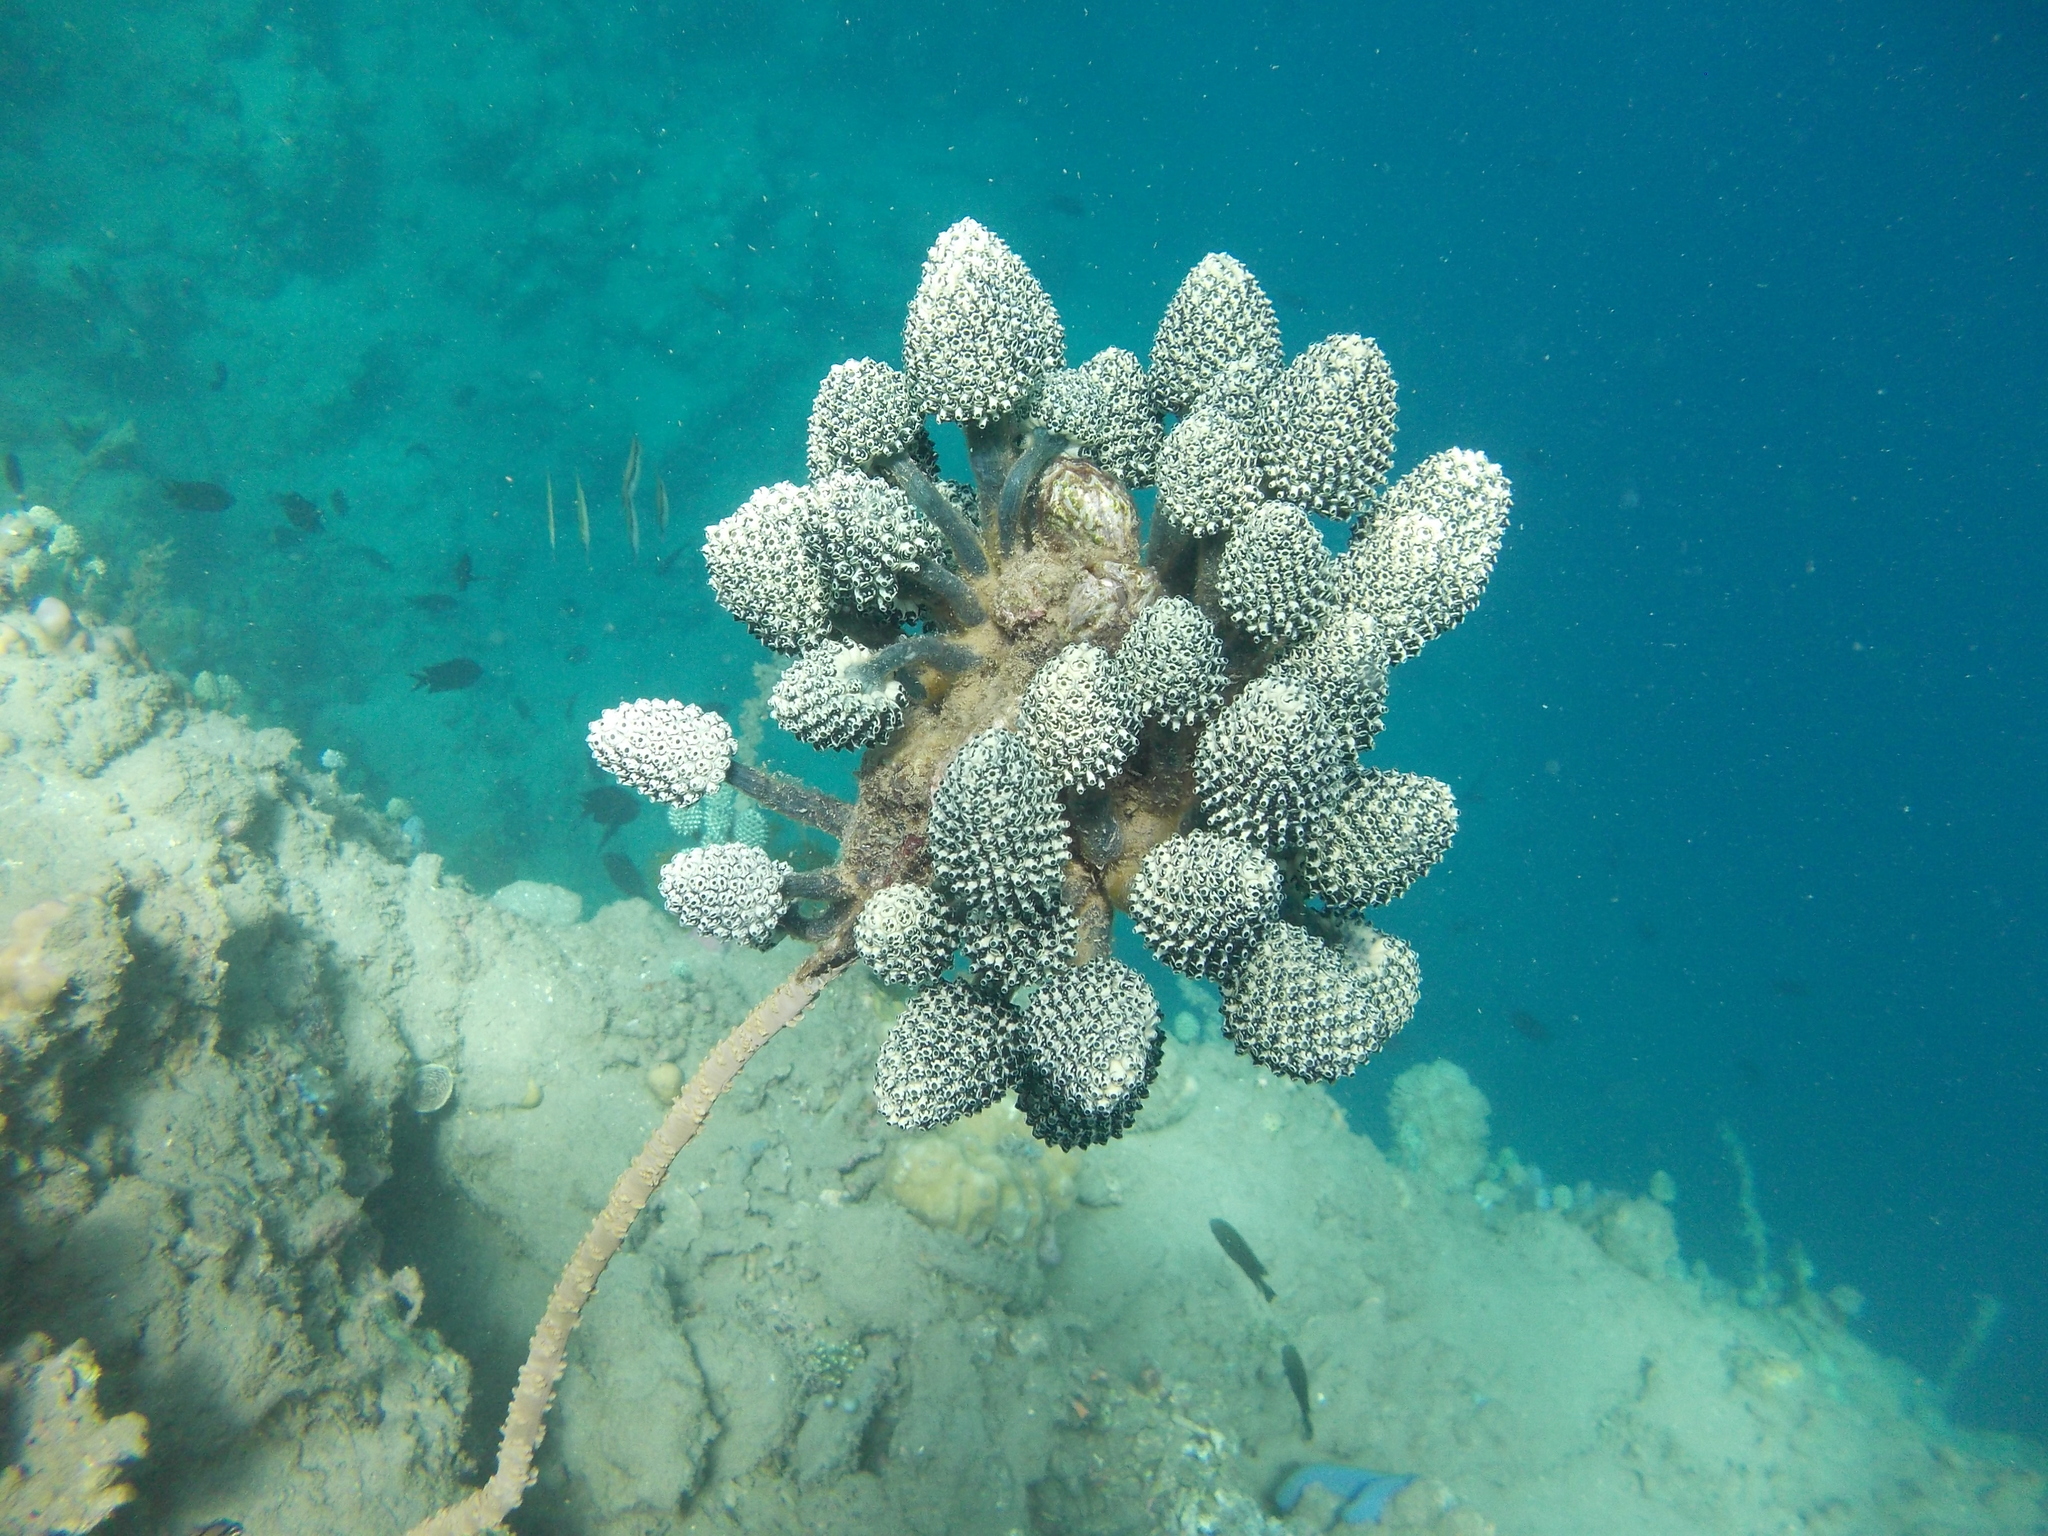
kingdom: Animalia
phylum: Chordata
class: Ascidiacea
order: Aplousobranchia
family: Clavelinidae
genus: Nephtheis
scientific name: Nephtheis fascicularis
